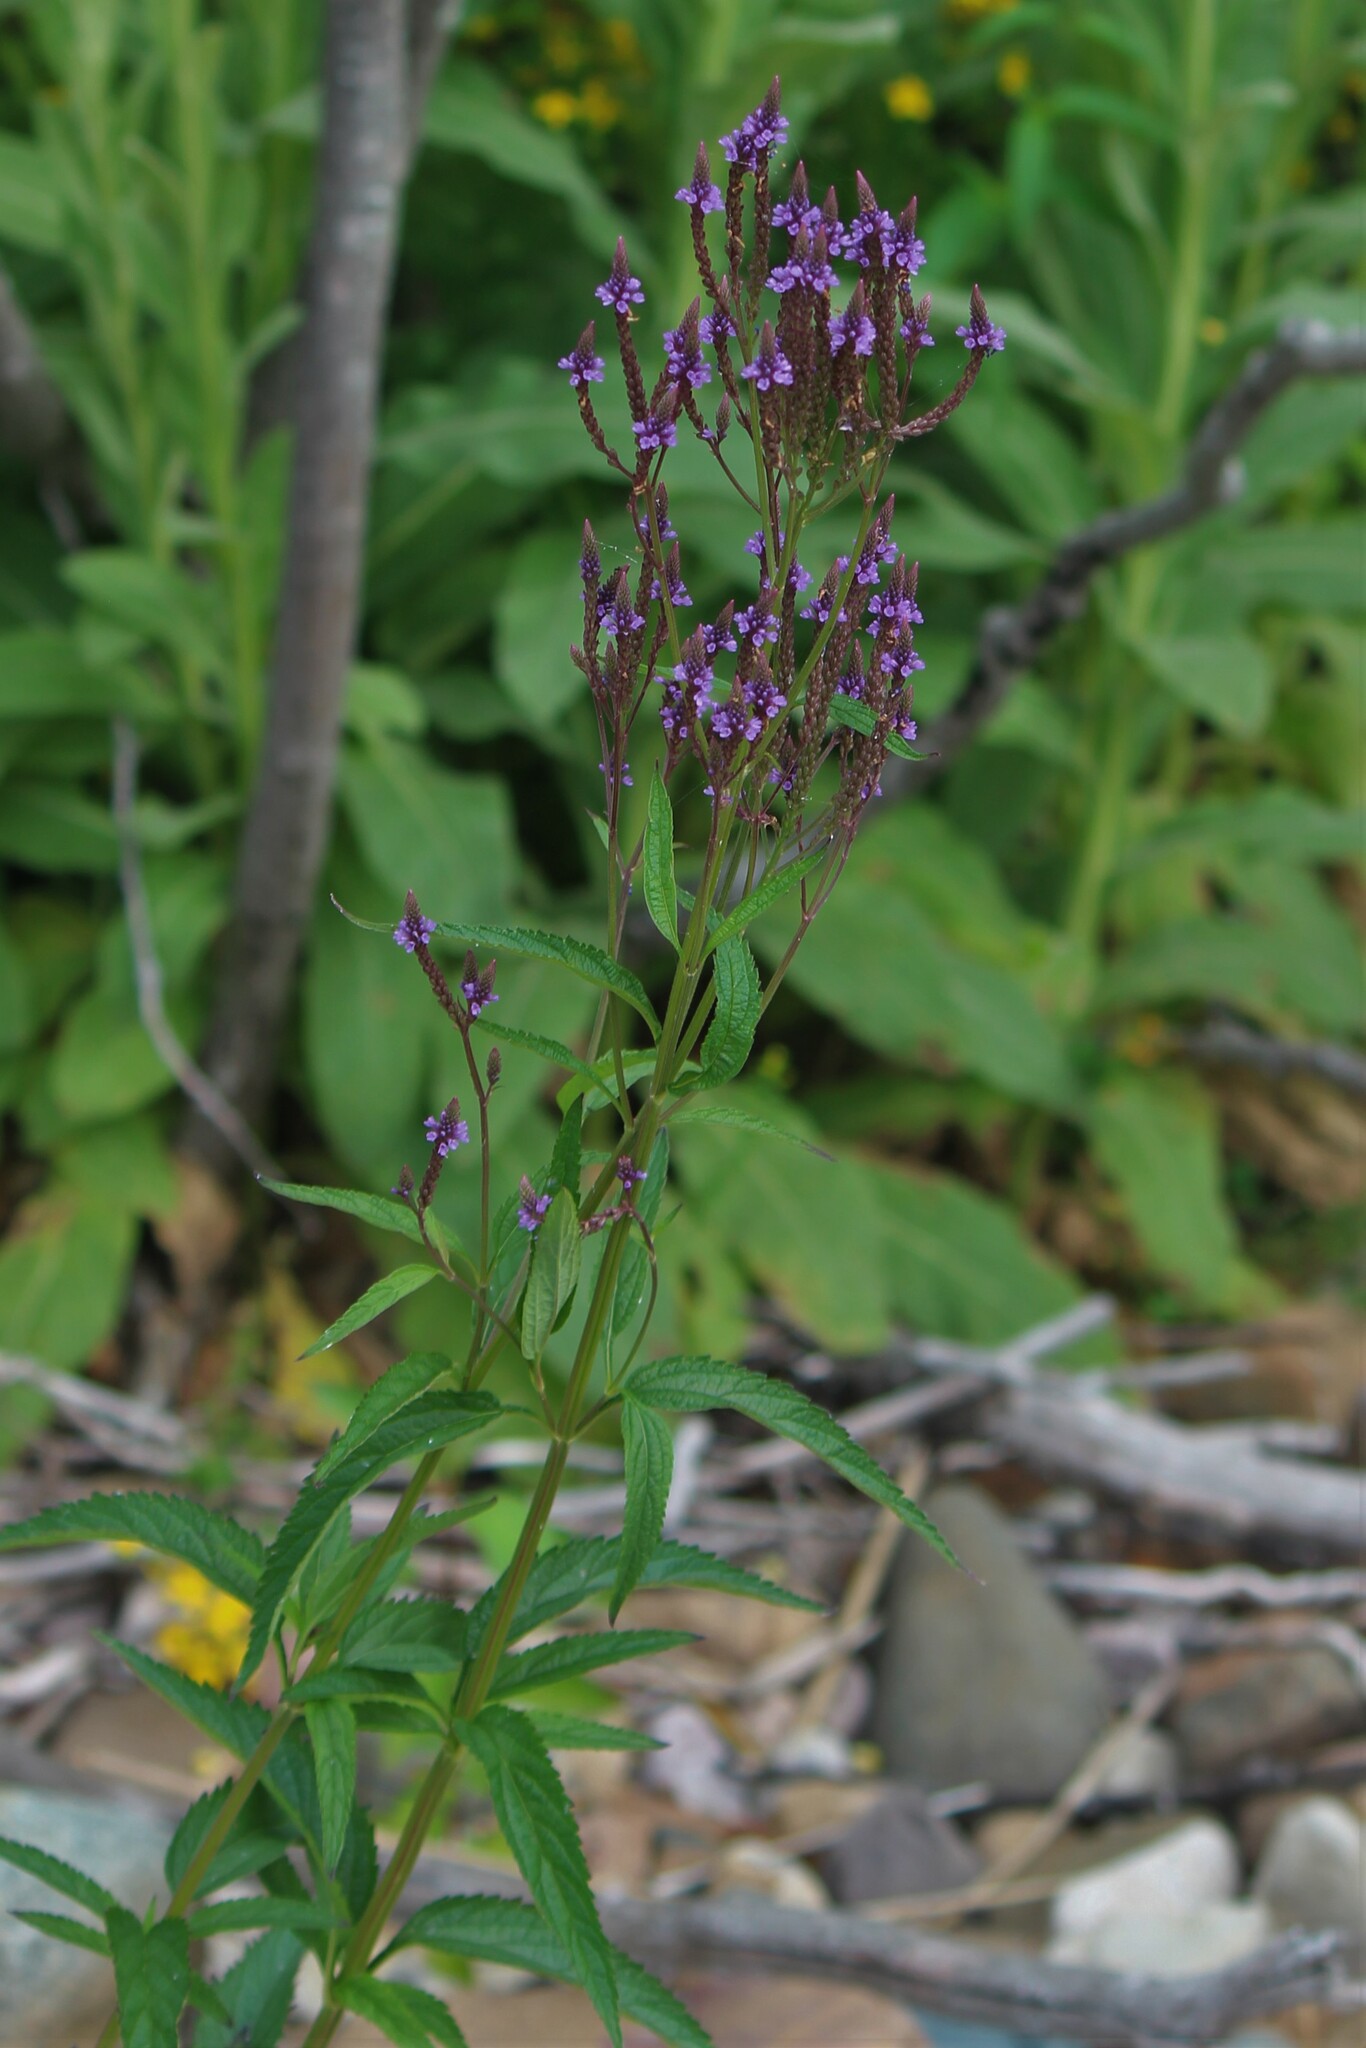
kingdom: Plantae
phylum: Tracheophyta
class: Magnoliopsida
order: Lamiales
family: Verbenaceae
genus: Verbena
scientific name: Verbena hastata
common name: American blue vervain
